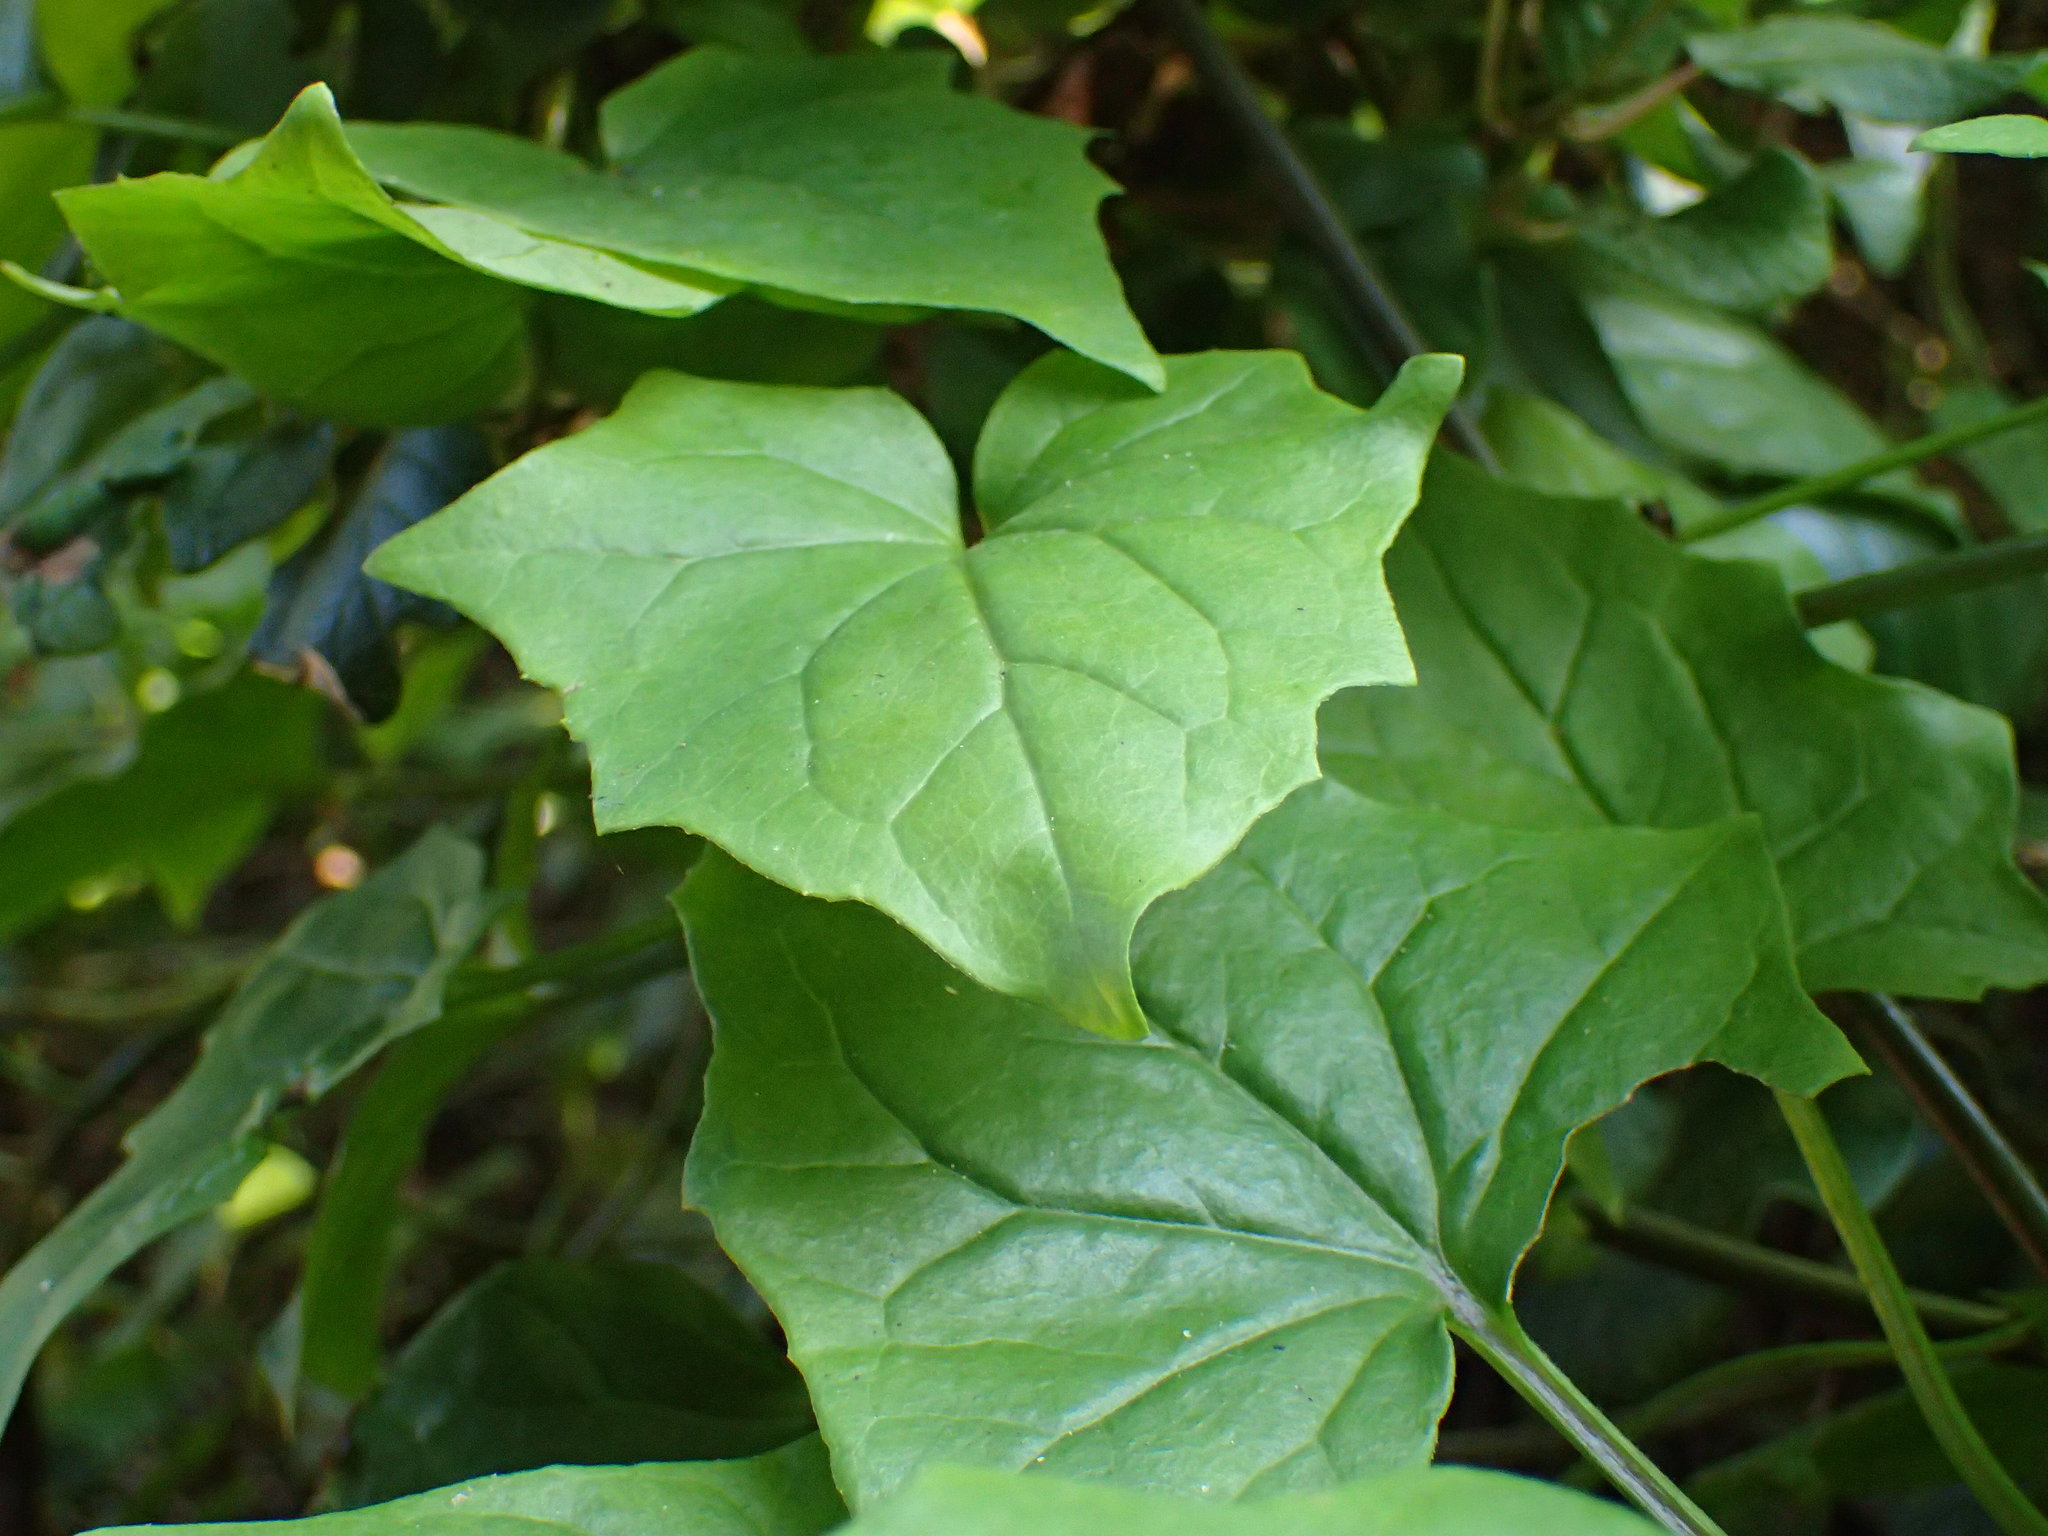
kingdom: Plantae
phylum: Tracheophyta
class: Magnoliopsida
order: Asterales
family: Asteraceae
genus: Senecio
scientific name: Senecio tamoides
